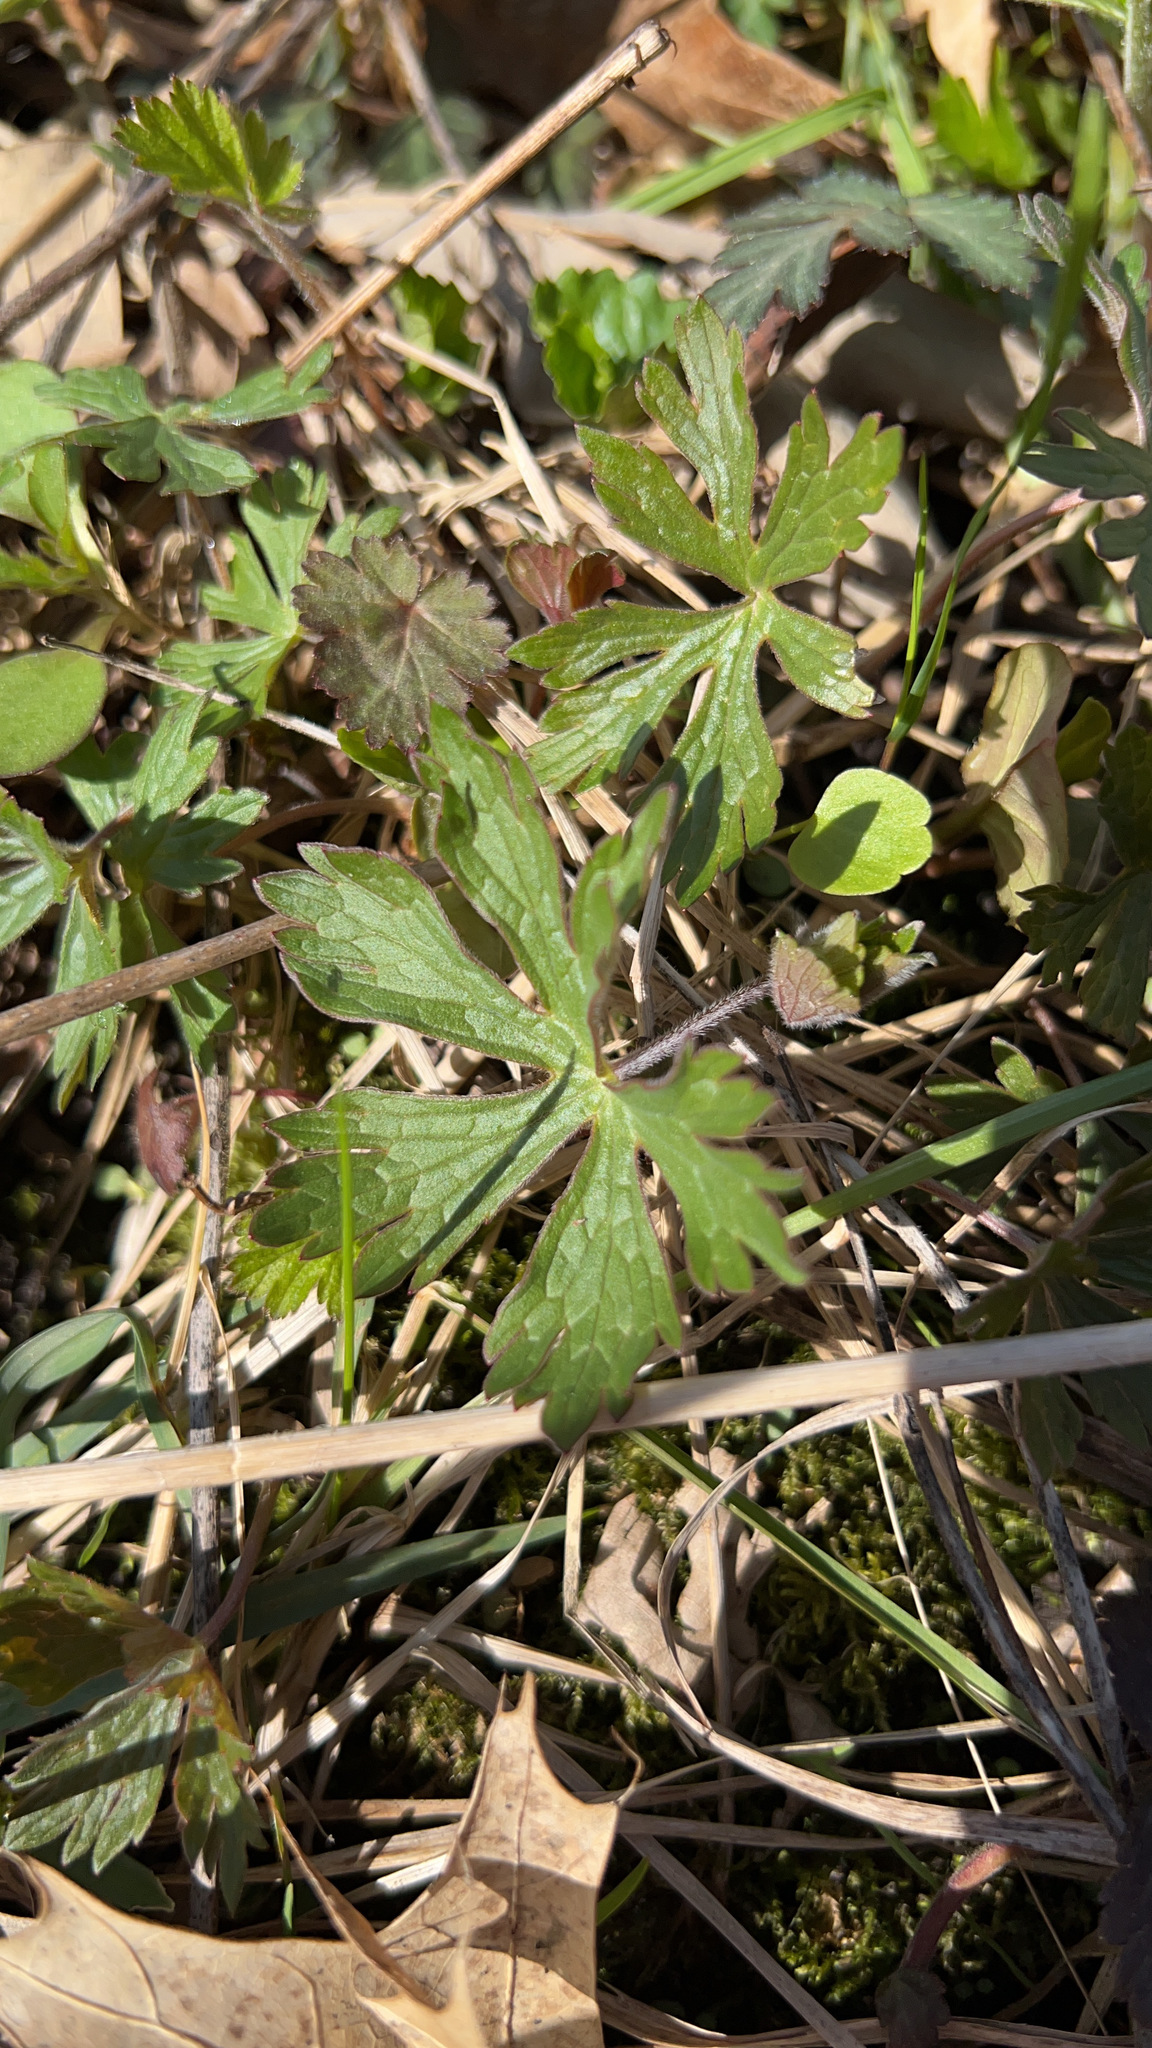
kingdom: Plantae
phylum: Tracheophyta
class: Magnoliopsida
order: Geraniales
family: Geraniaceae
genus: Geranium
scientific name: Geranium maculatum
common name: Spotted geranium
